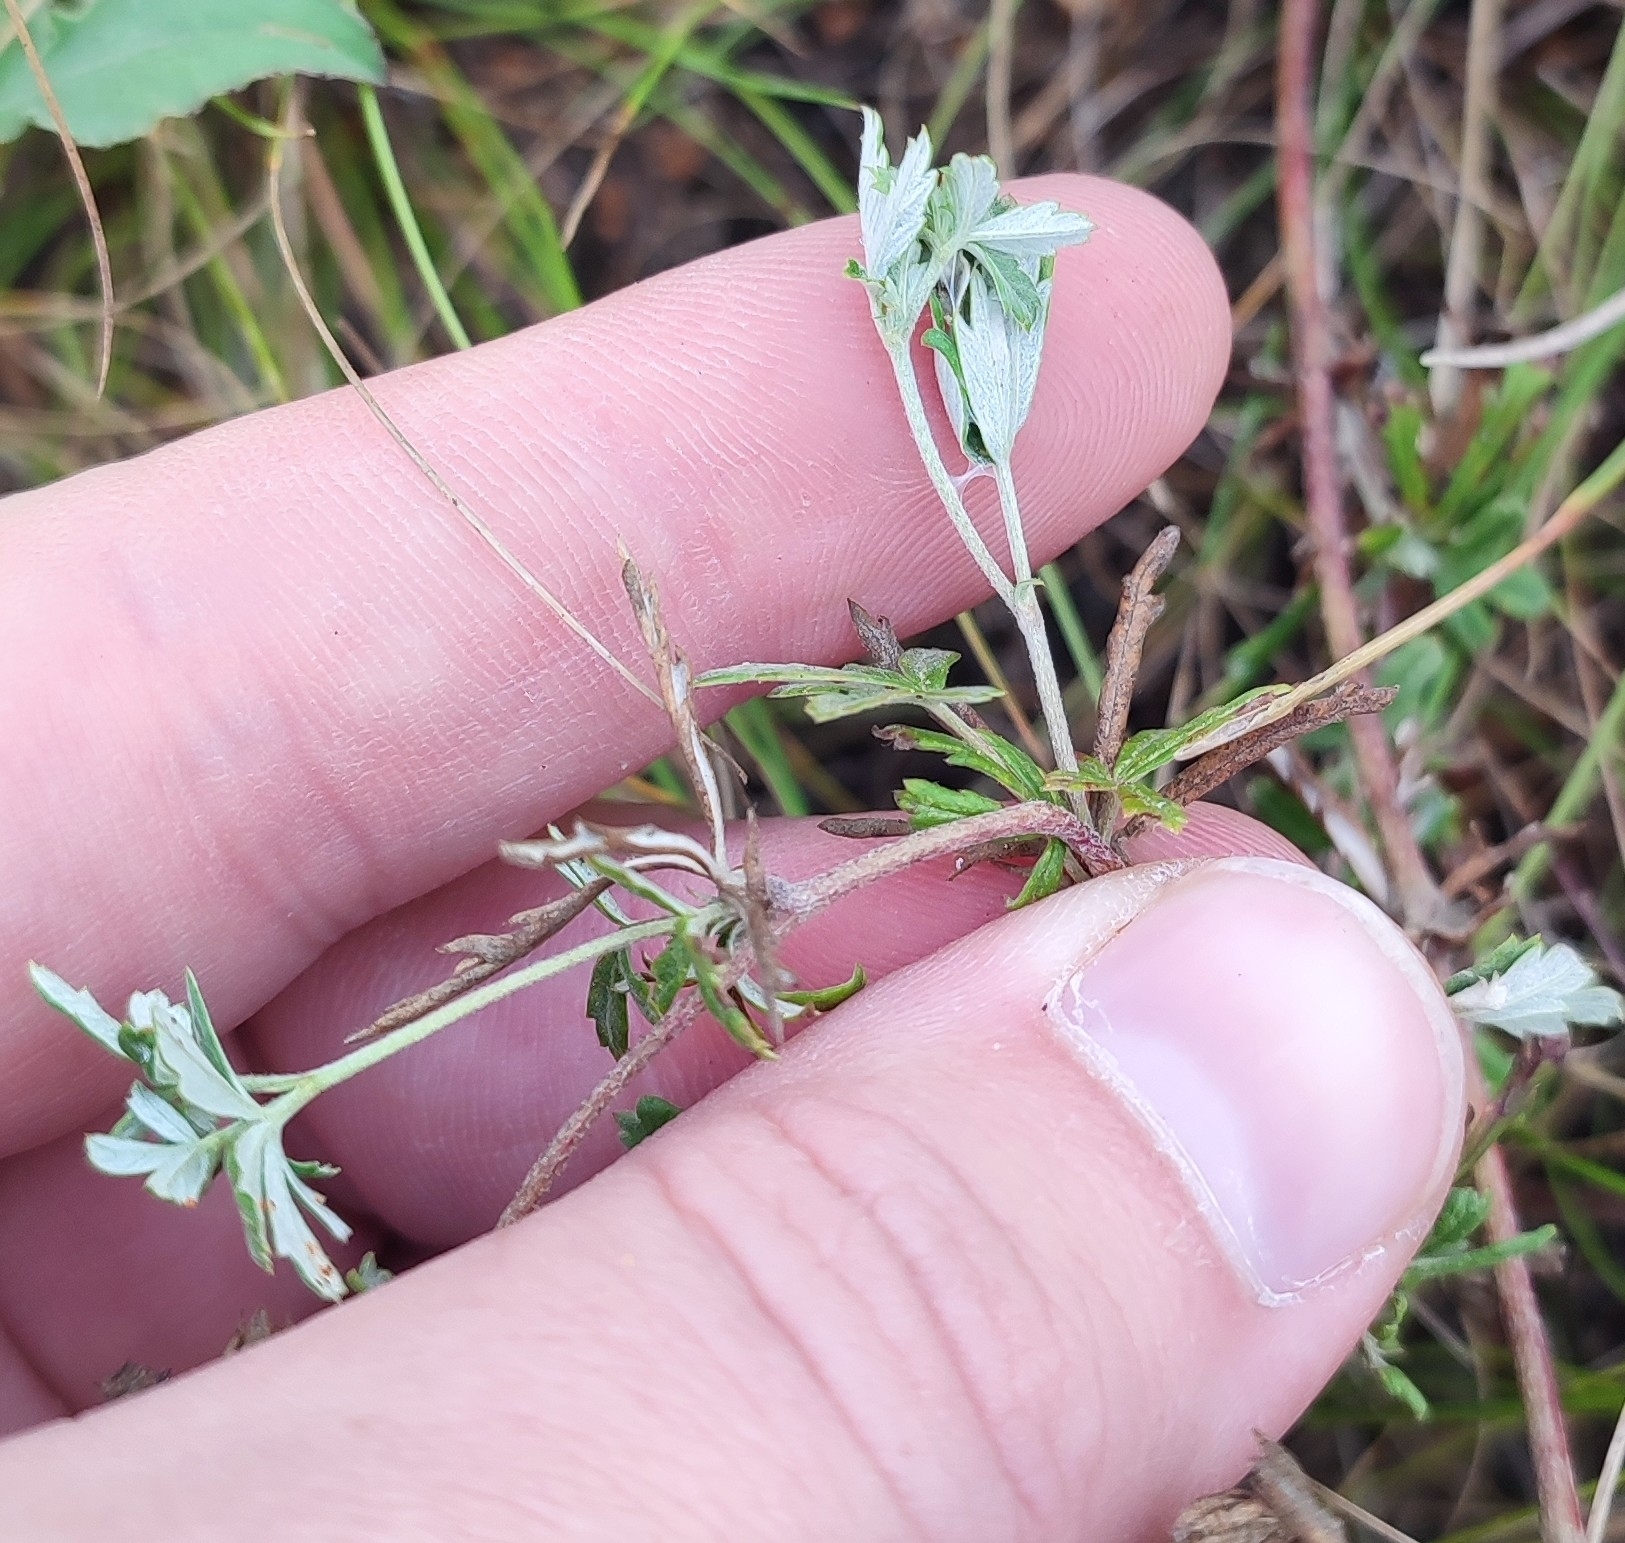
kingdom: Plantae
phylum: Tracheophyta
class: Magnoliopsida
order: Rosales
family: Rosaceae
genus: Potentilla
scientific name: Potentilla argentea
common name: Hoary cinquefoil
